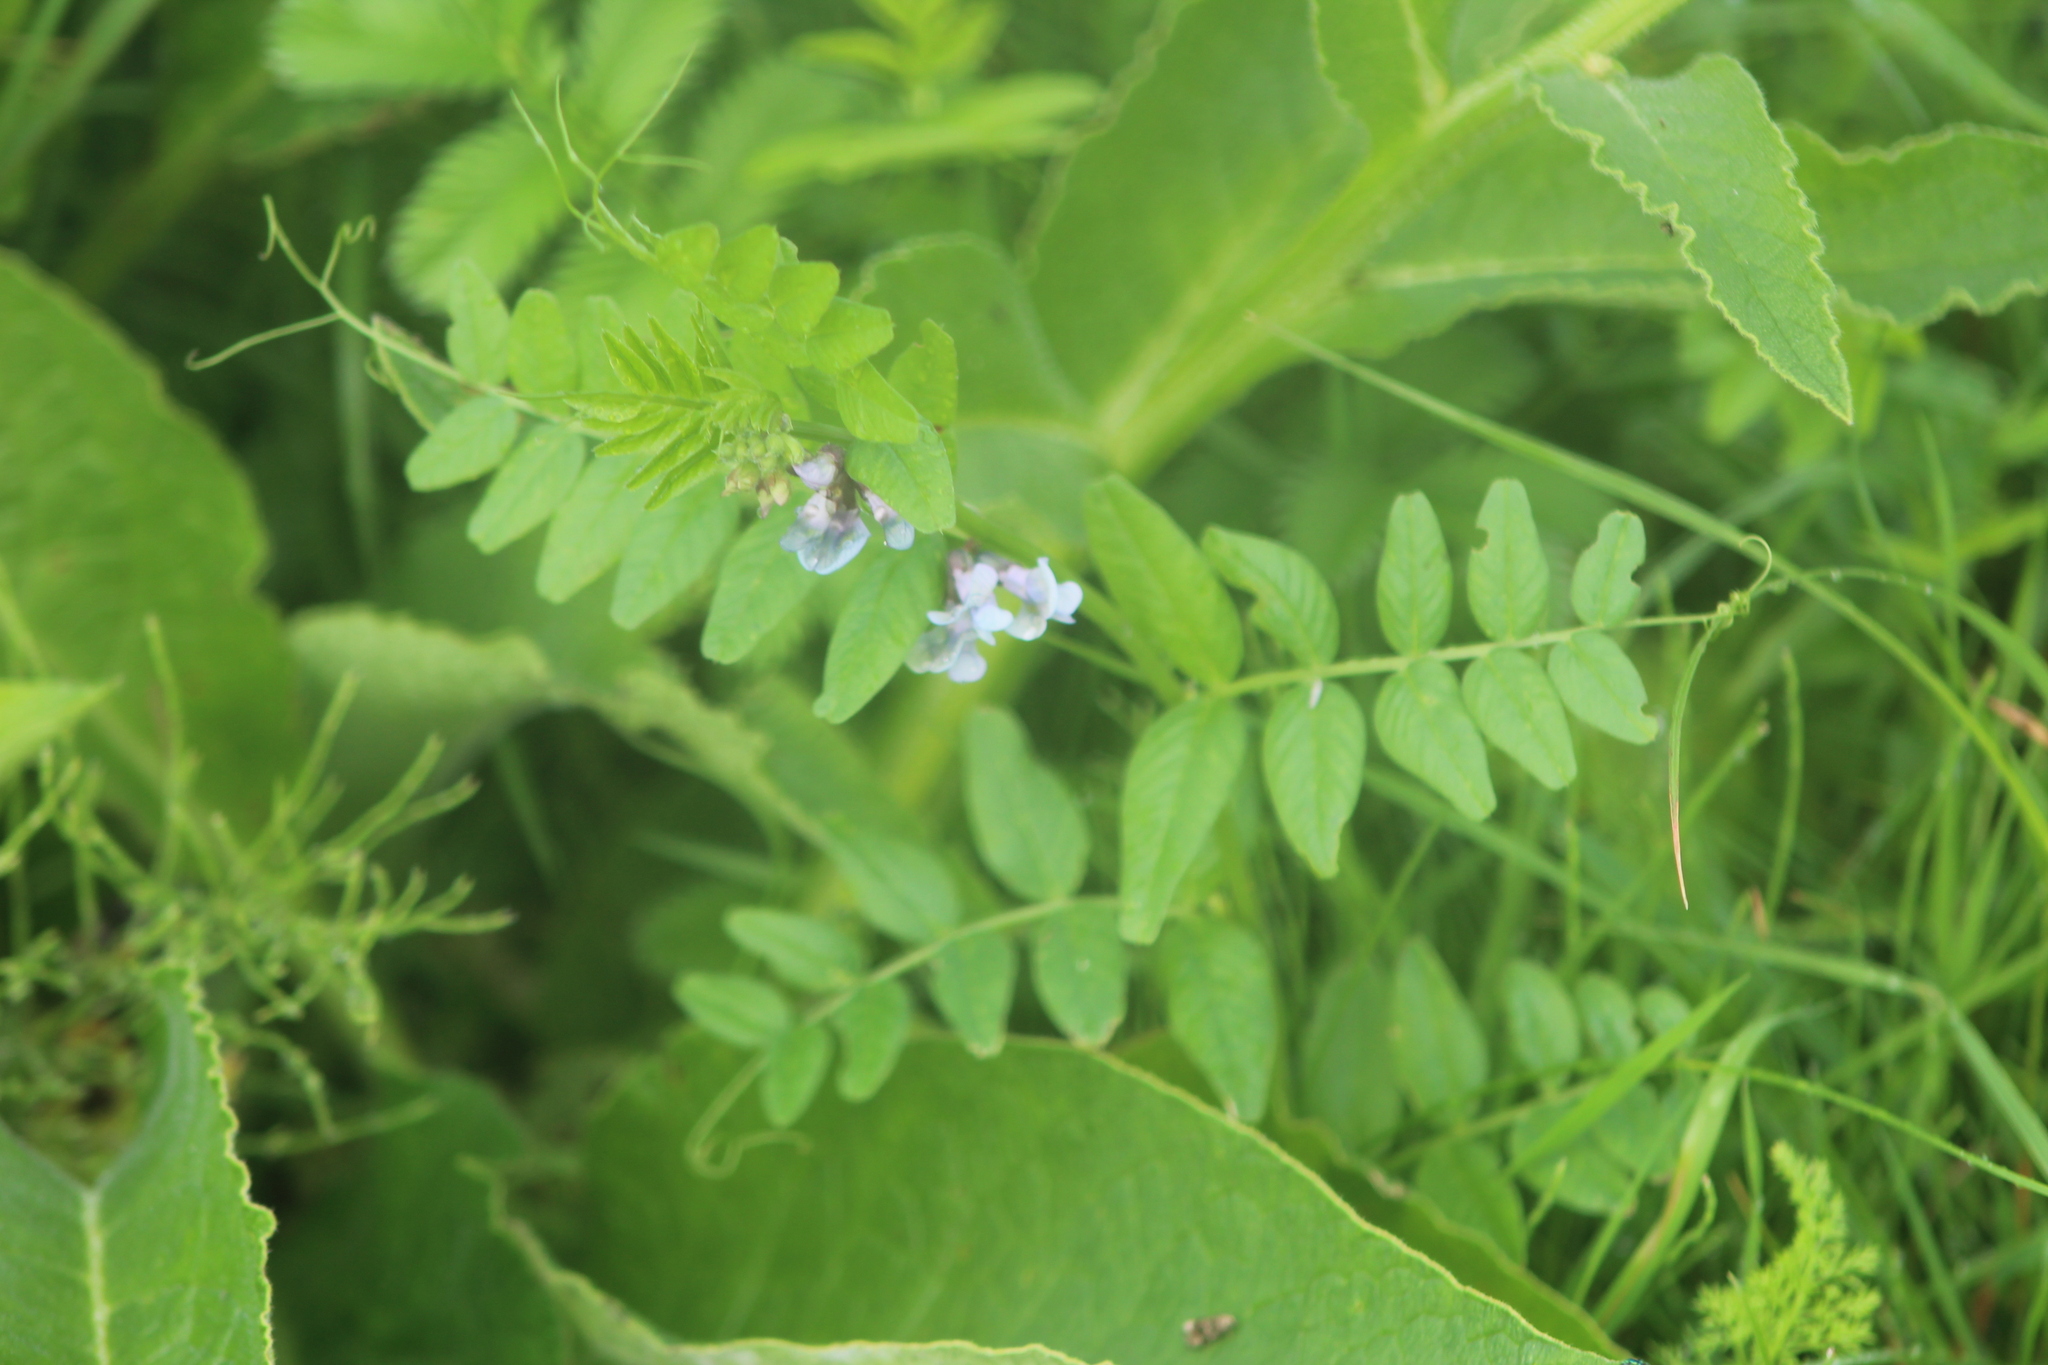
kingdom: Plantae
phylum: Tracheophyta
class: Magnoliopsida
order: Fabales
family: Fabaceae
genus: Vicia
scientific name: Vicia sepium
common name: Bush vetch
